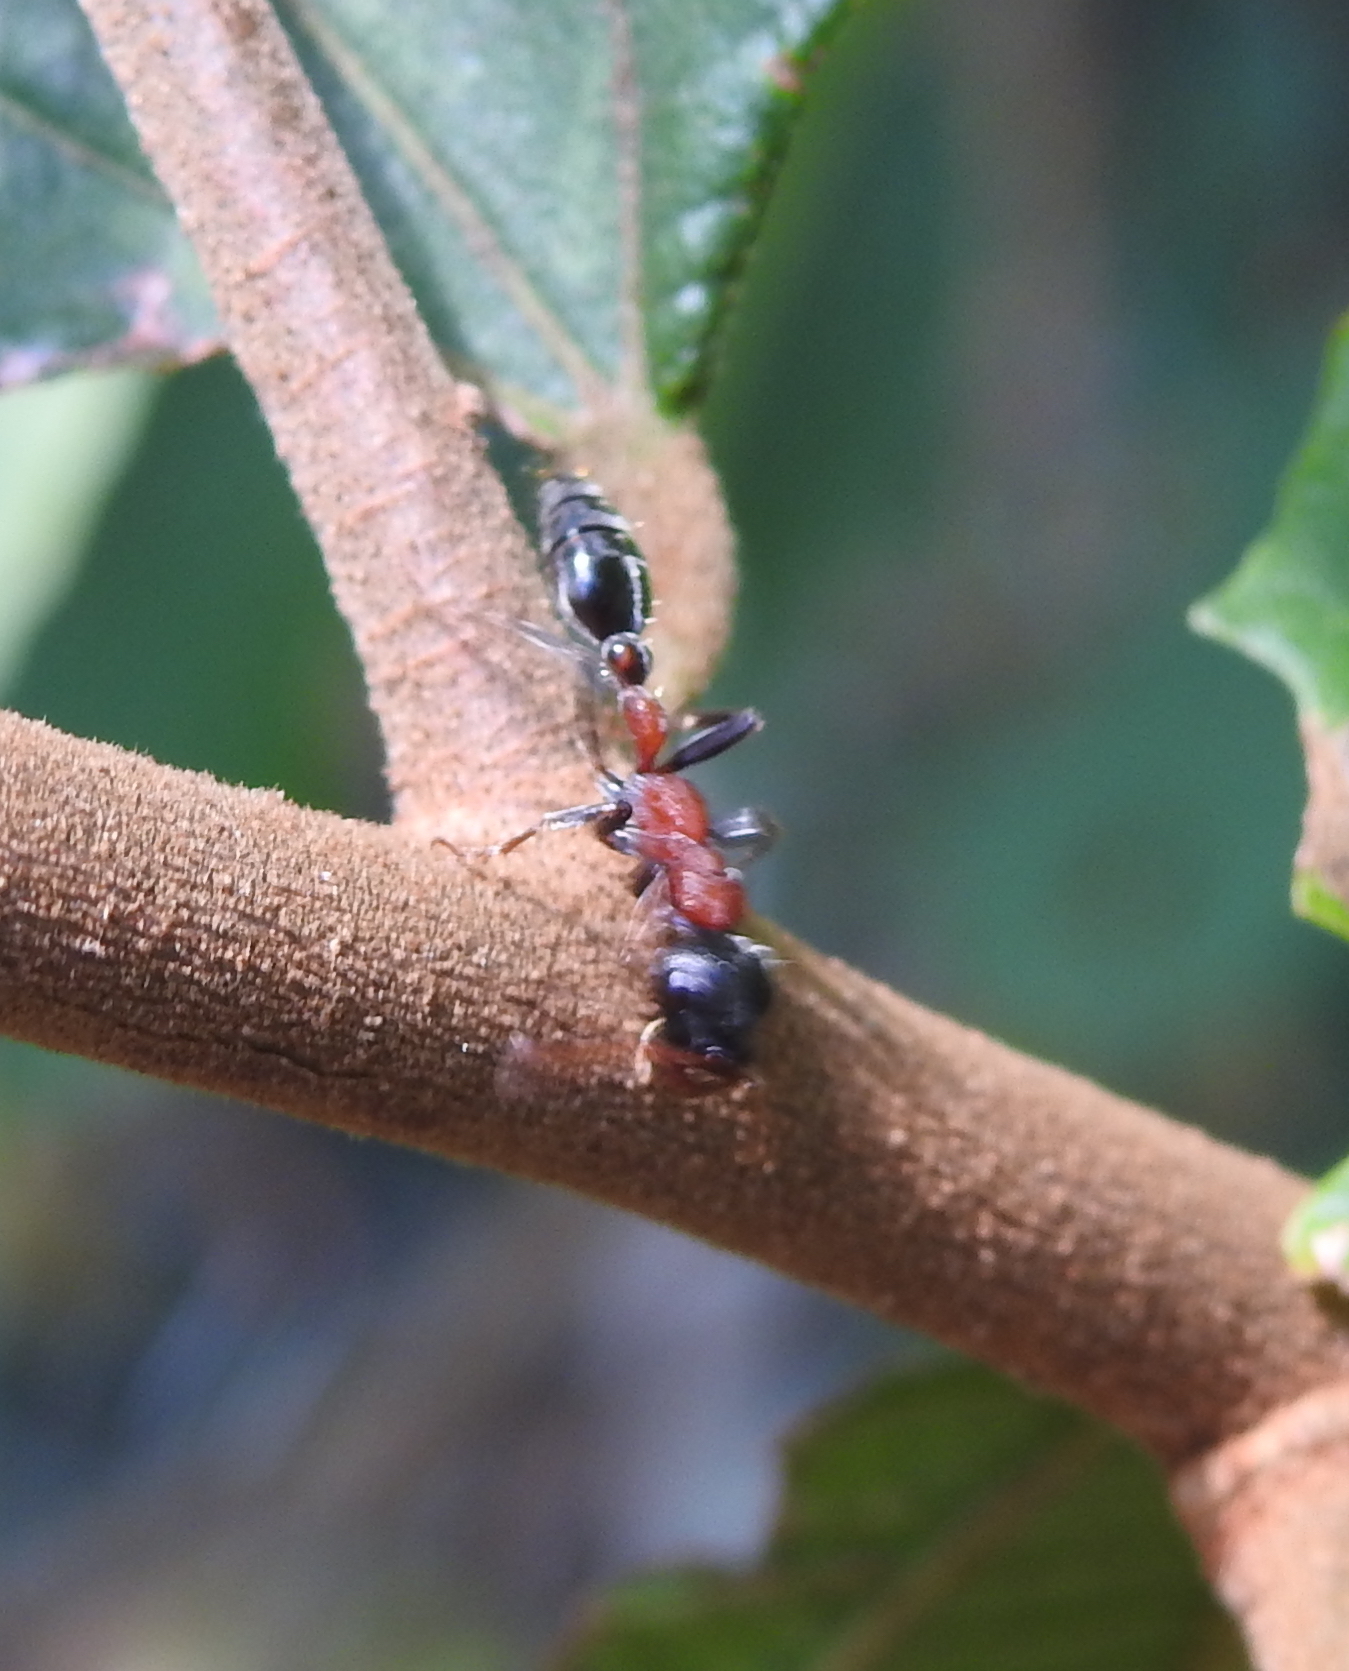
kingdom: Animalia
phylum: Arthropoda
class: Insecta
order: Hymenoptera
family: Formicidae
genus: Tetraponera
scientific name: Tetraponera rufonigra
